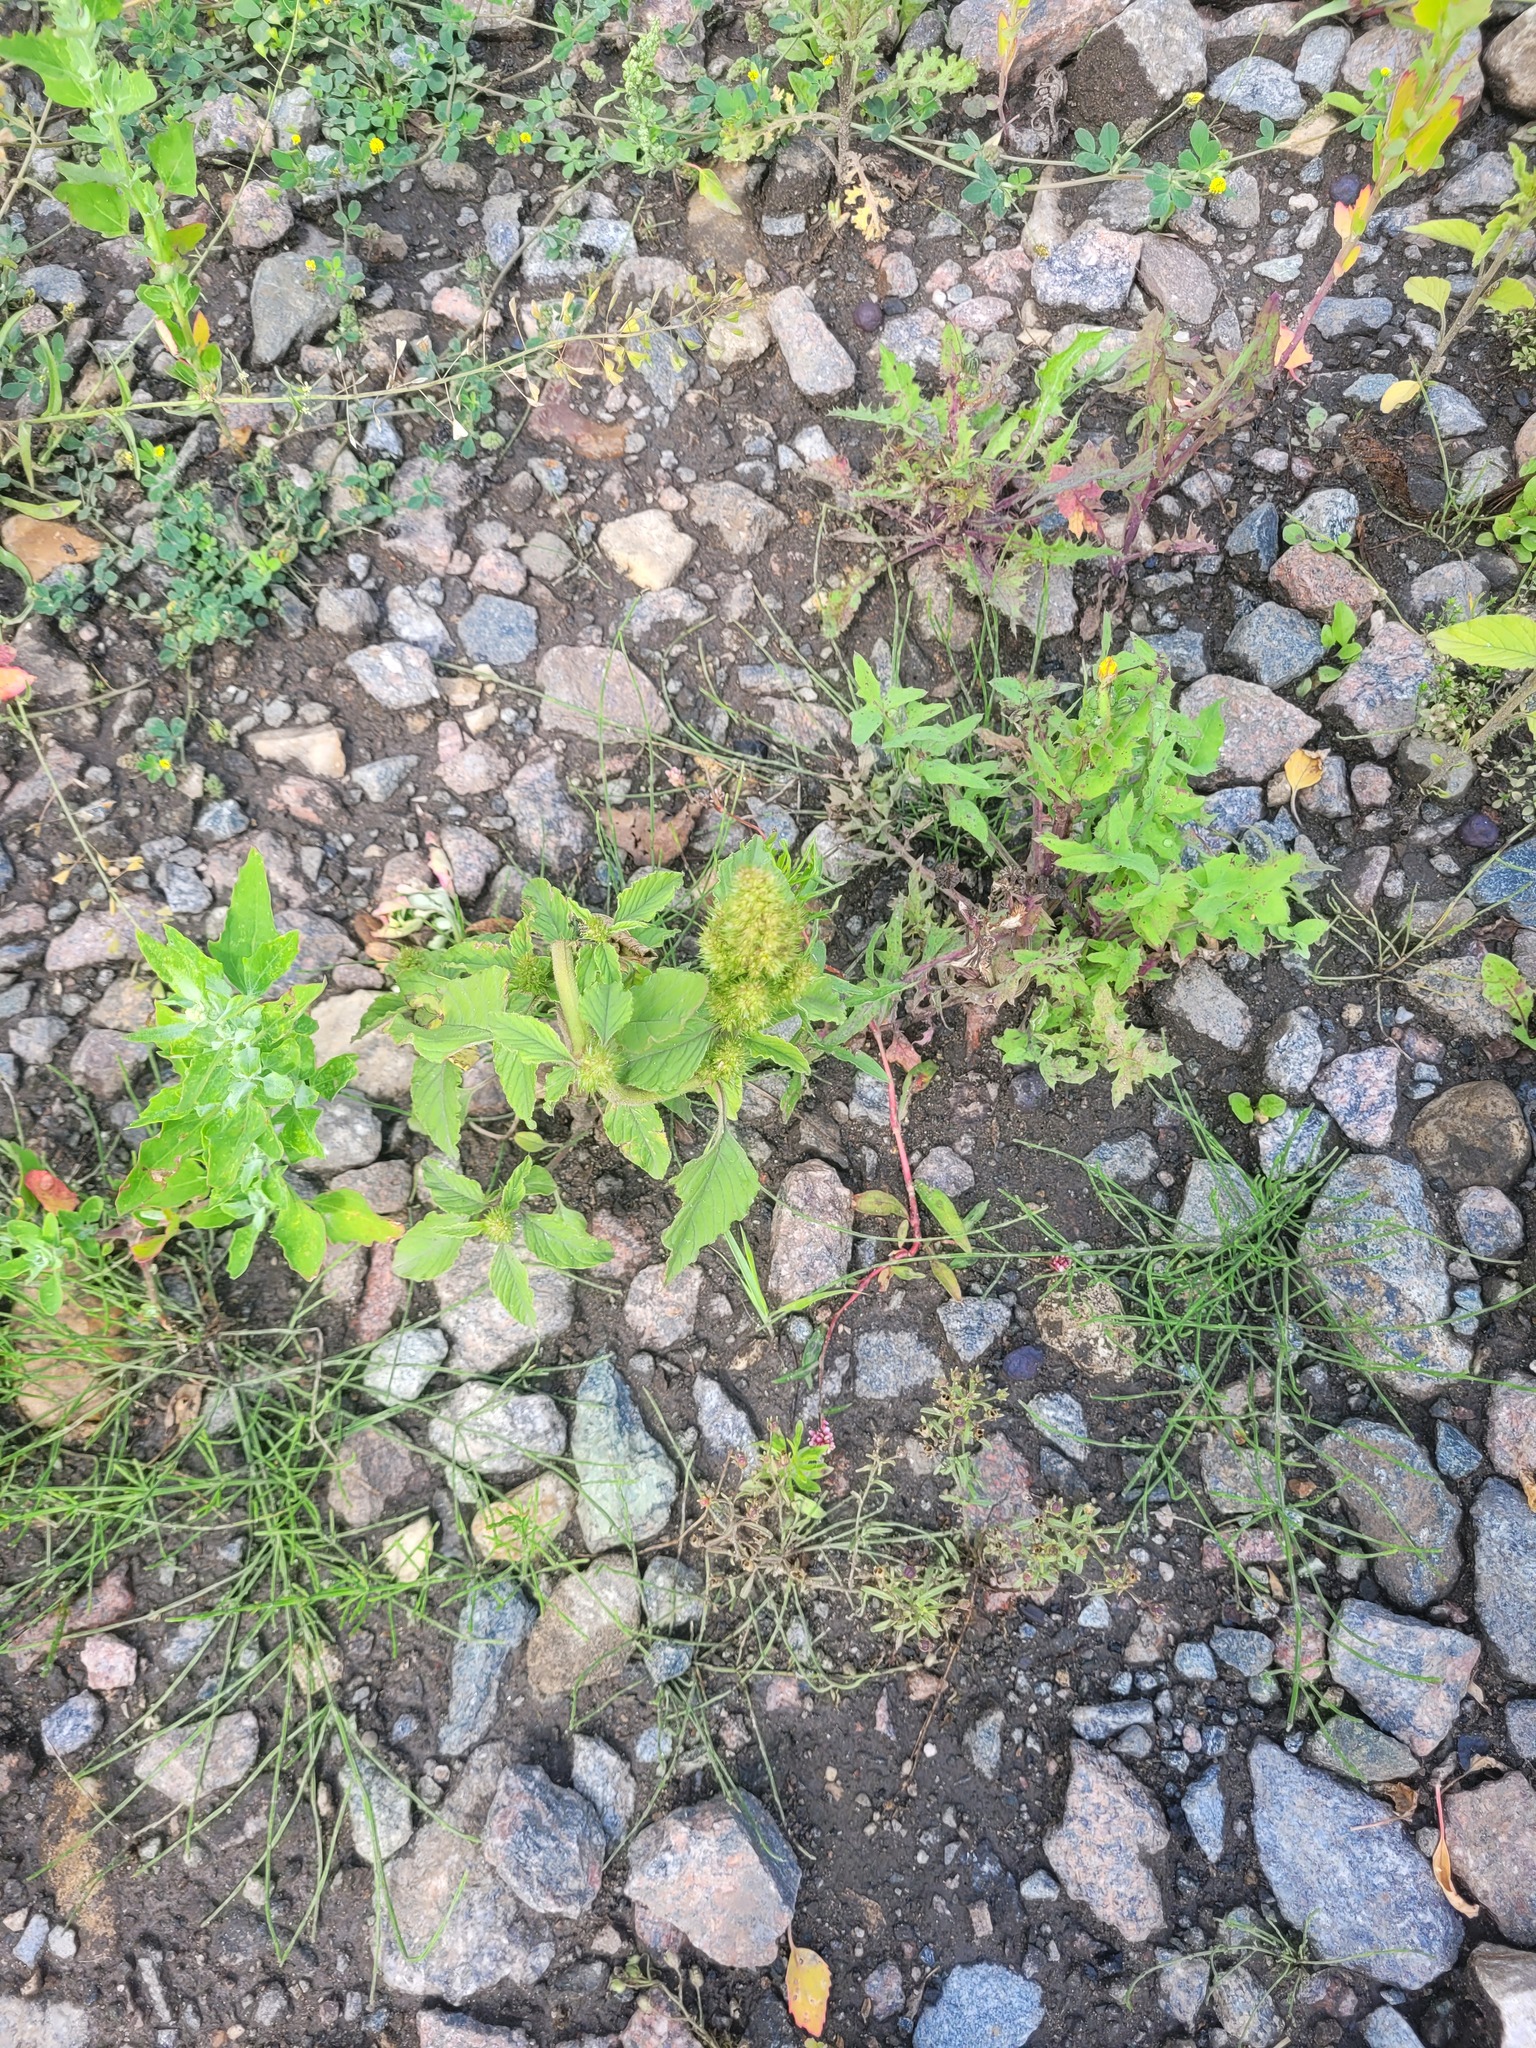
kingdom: Plantae
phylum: Tracheophyta
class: Magnoliopsida
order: Caryophyllales
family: Amaranthaceae
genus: Amaranthus
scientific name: Amaranthus retroflexus
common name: Redroot amaranth
